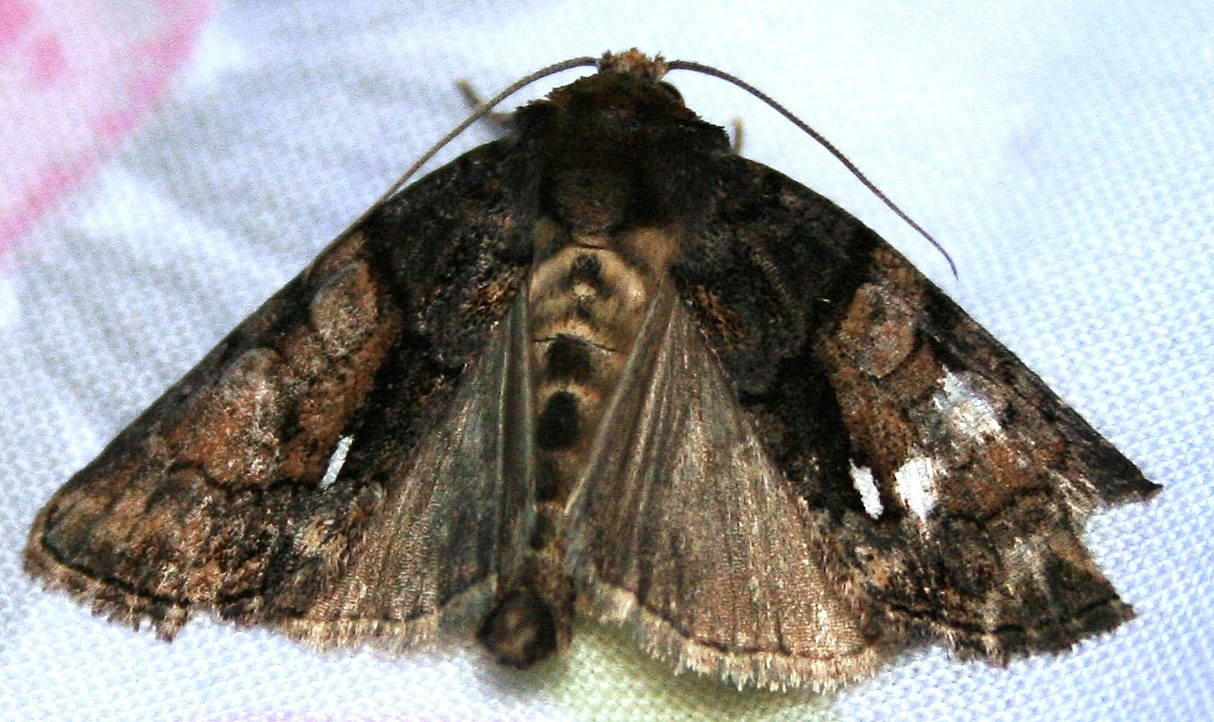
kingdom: Animalia
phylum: Arthropoda
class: Insecta
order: Lepidoptera
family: Noctuidae
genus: Chytonix
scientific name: Chytonix palliatricula
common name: Cloaked marvel
